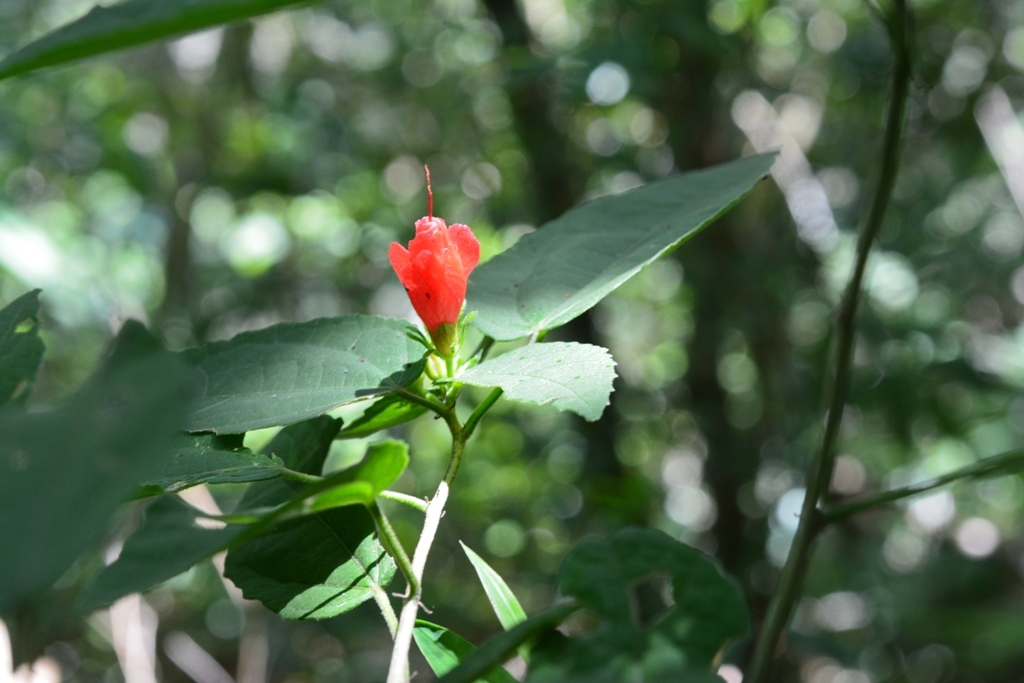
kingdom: Plantae
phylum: Tracheophyta
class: Magnoliopsida
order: Malvales
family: Malvaceae
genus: Malvaviscus
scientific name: Malvaviscus arboreus
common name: Wax mallow
